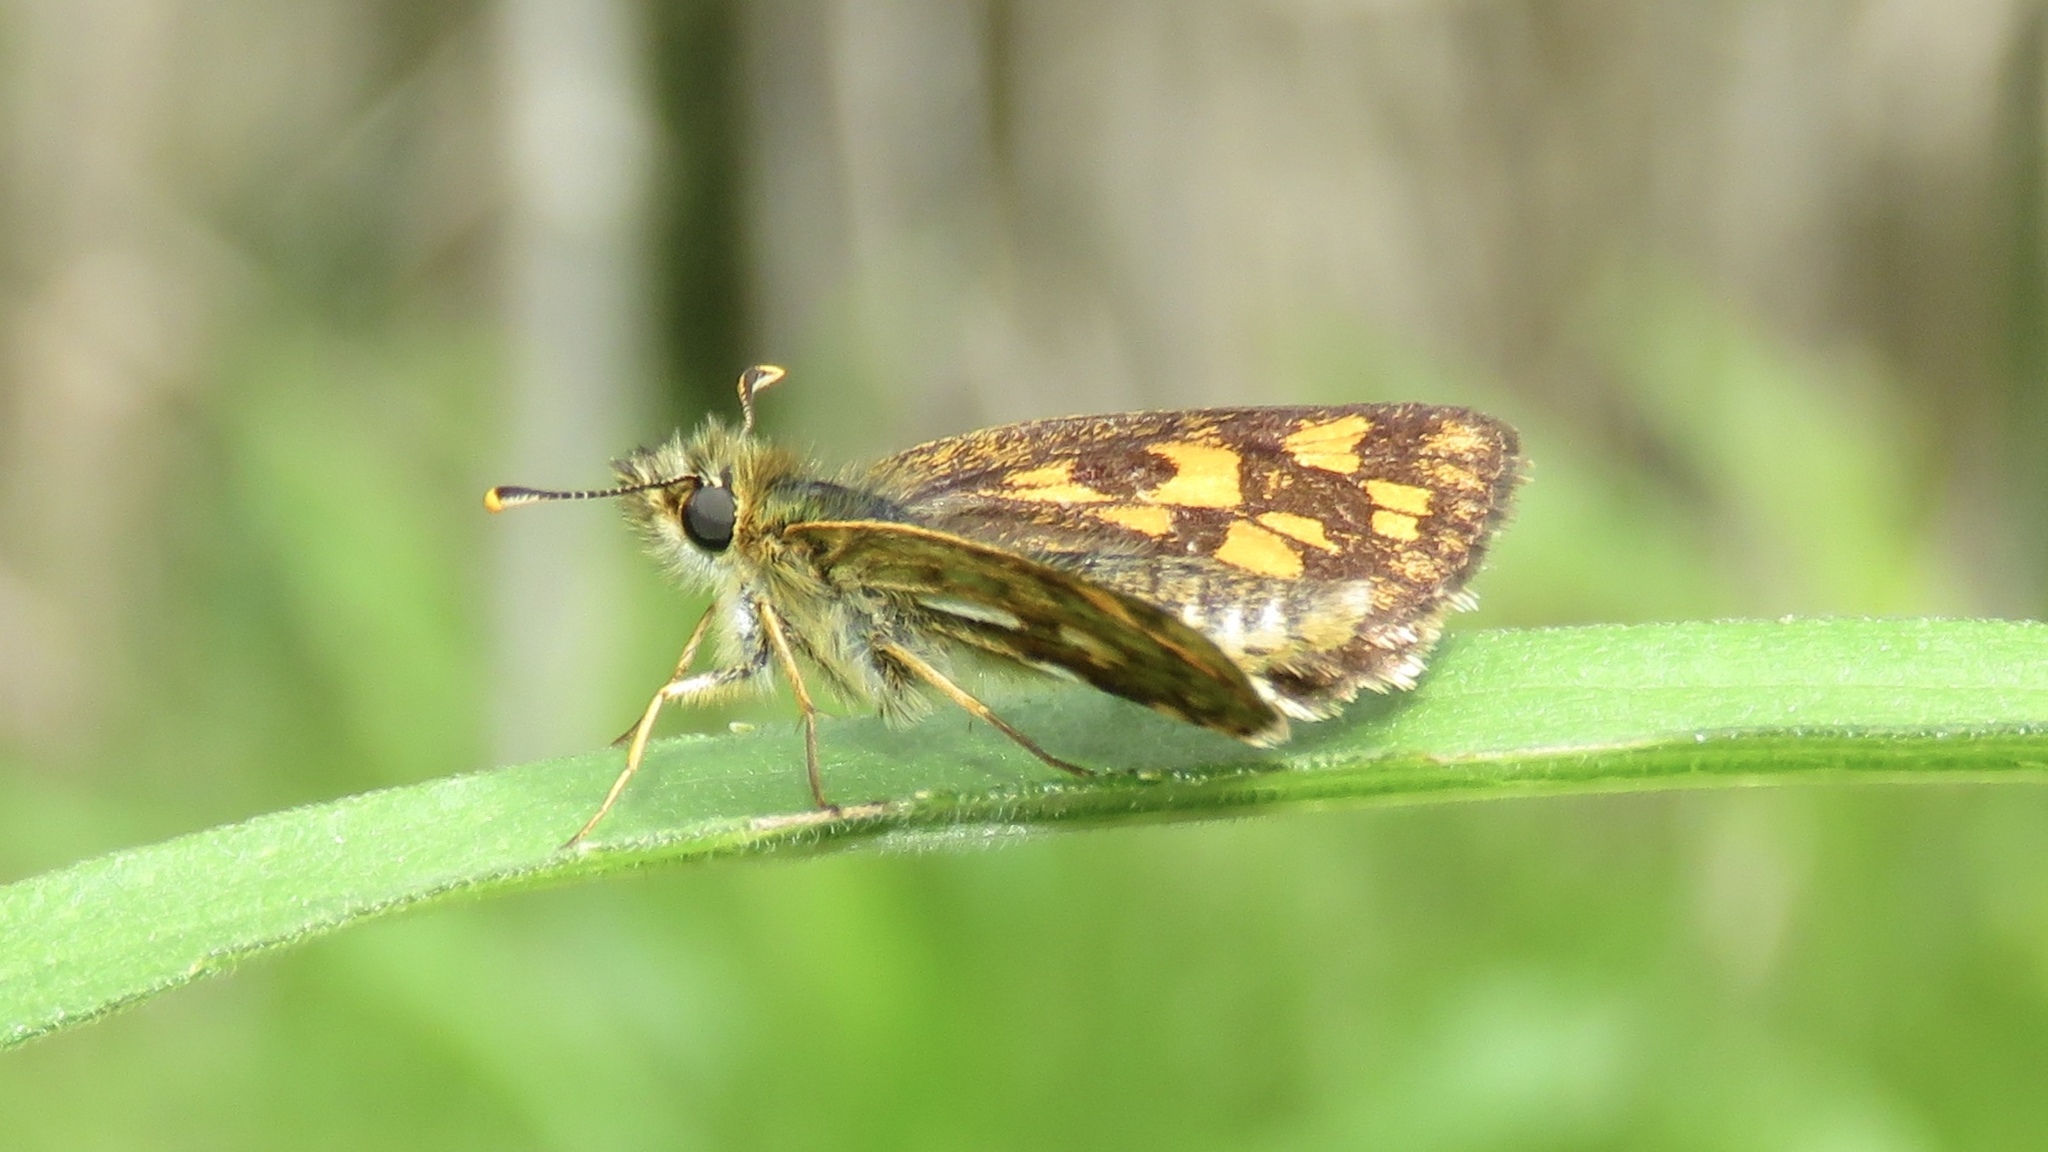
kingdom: Animalia
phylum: Arthropoda
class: Insecta
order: Lepidoptera
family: Hesperiidae
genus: Carterocephalus
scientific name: Carterocephalus mandan
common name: Arctic skipperling
